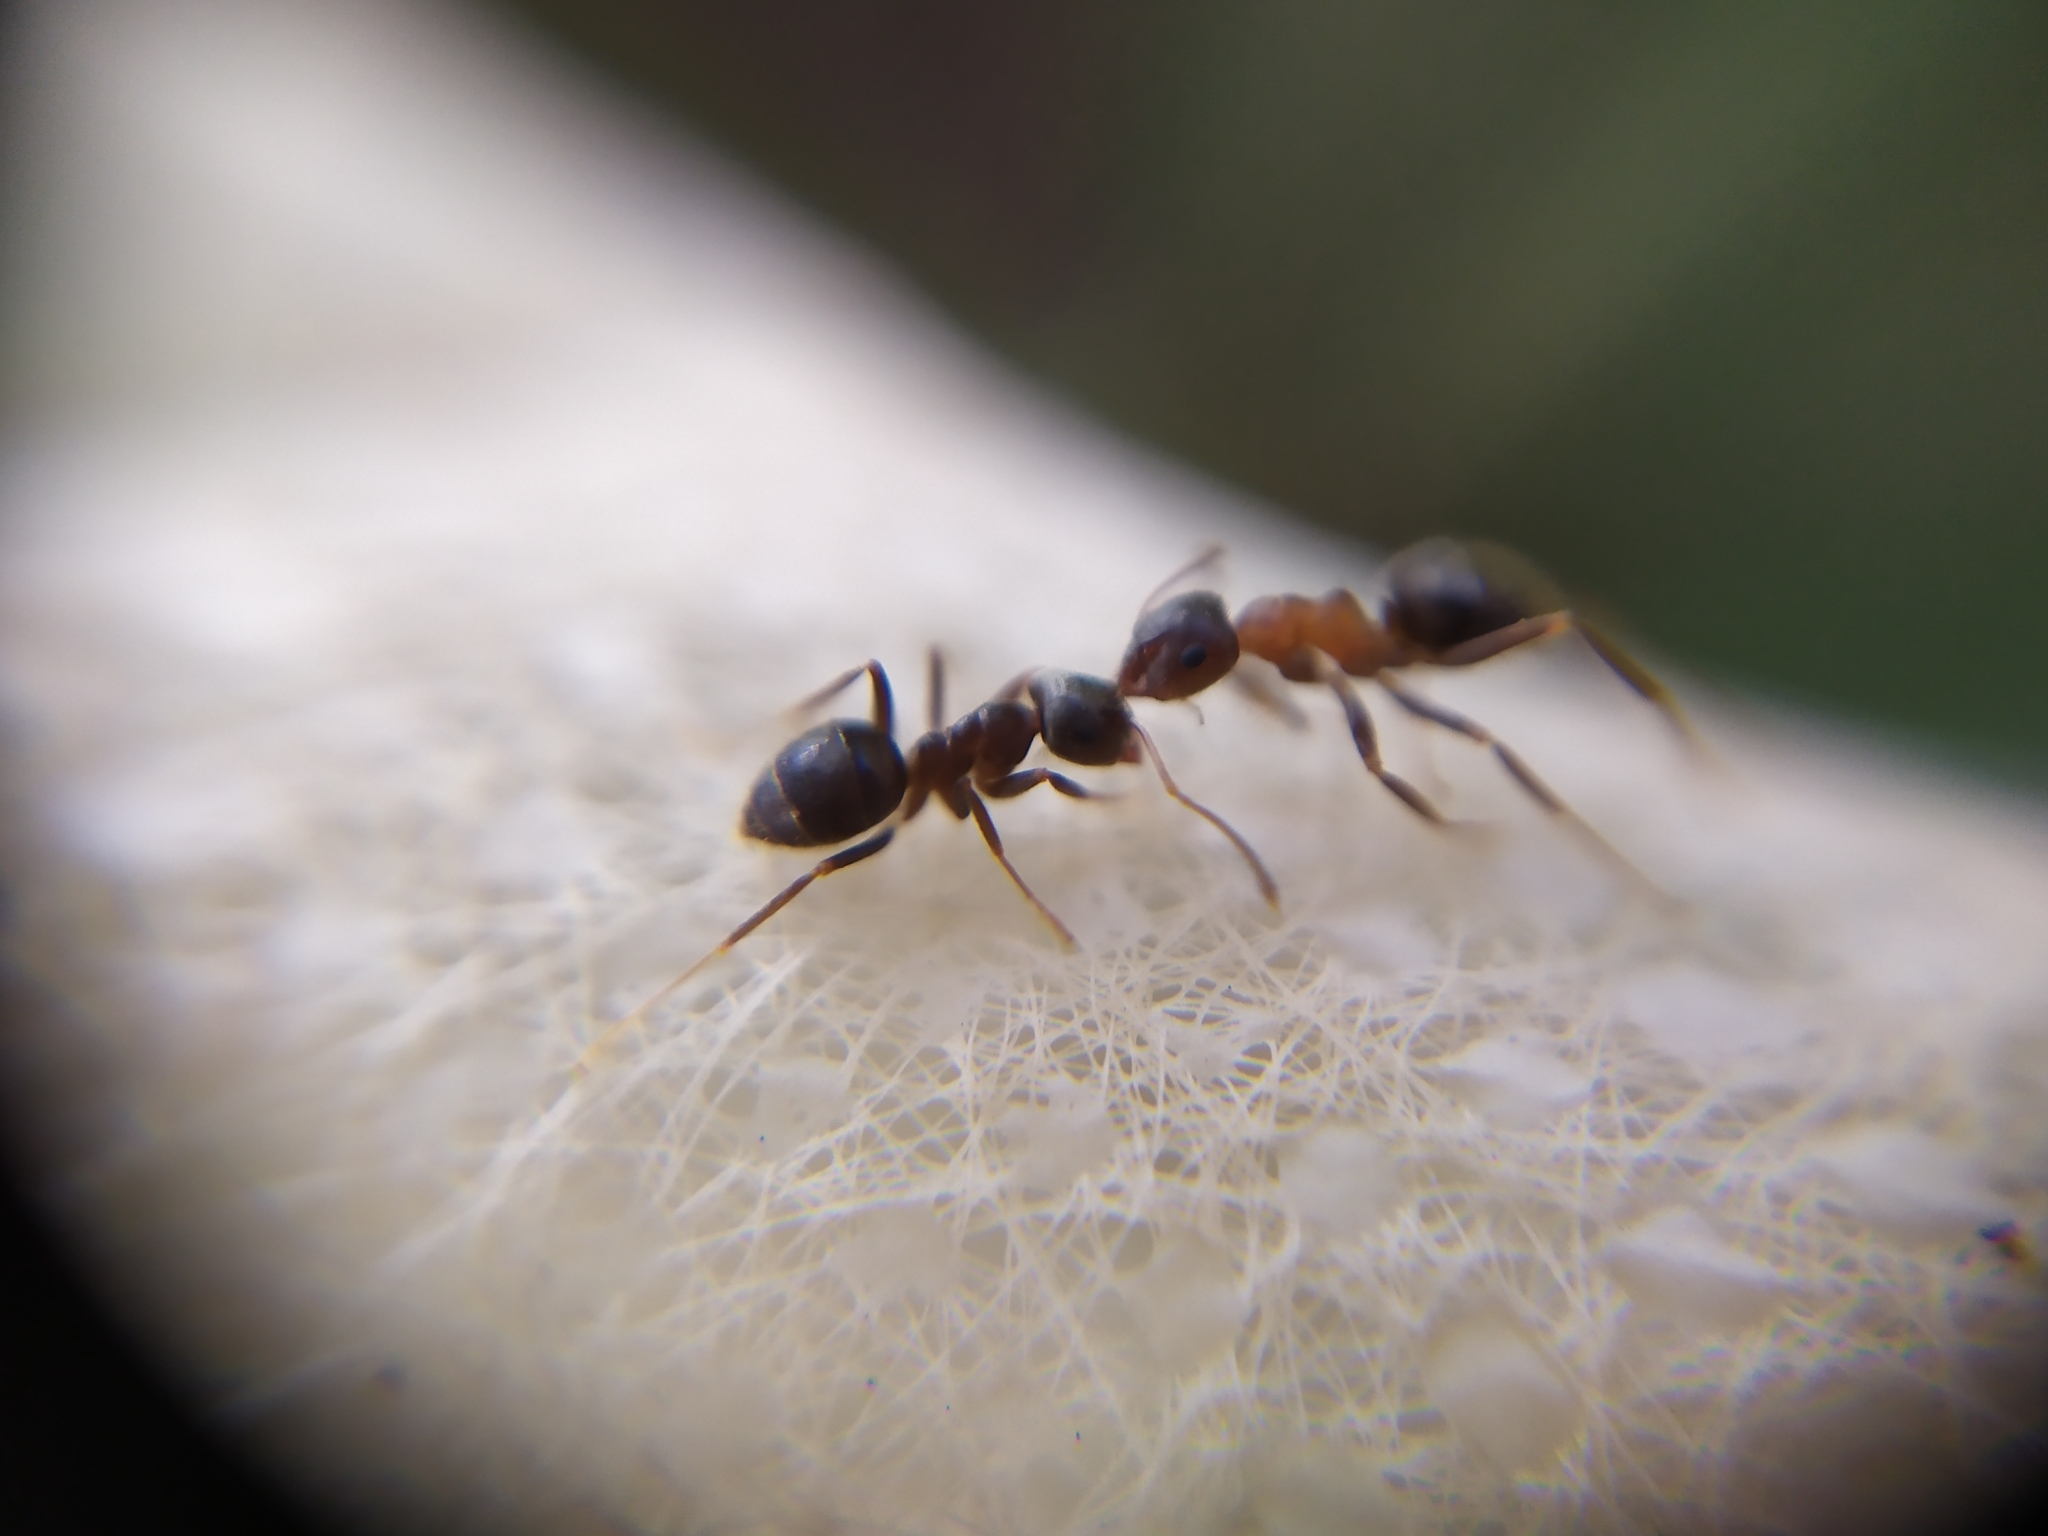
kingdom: Animalia
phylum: Arthropoda
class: Insecta
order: Hymenoptera
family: Formicidae
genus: Lasius
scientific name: Lasius niger
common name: Small black ant
